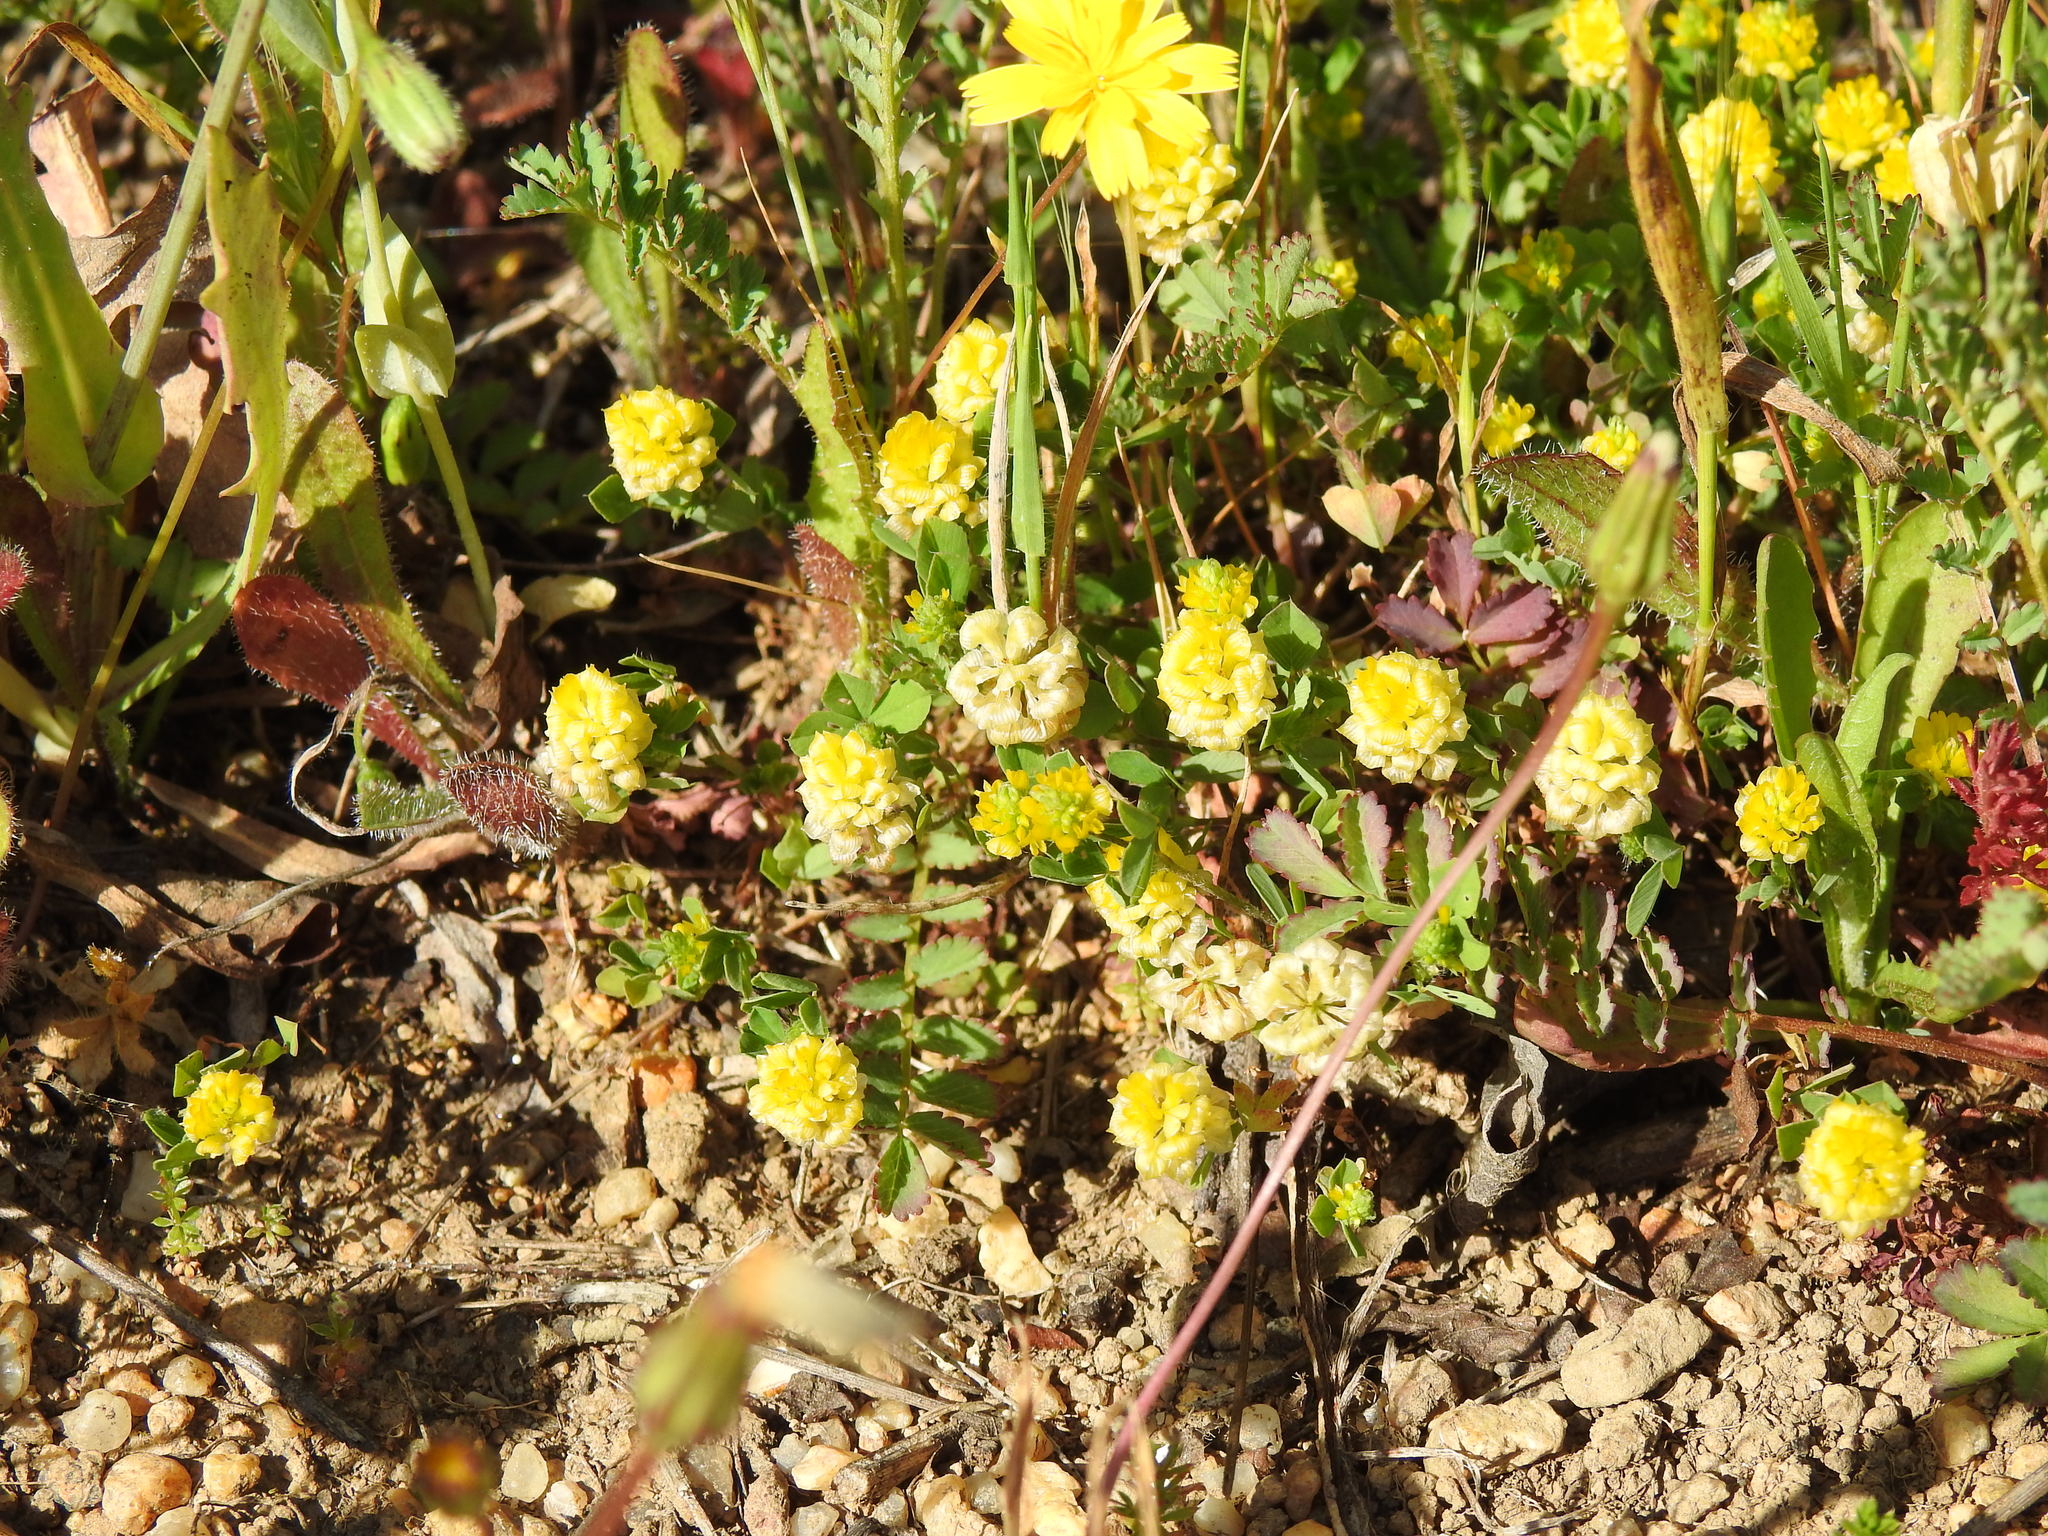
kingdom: Plantae
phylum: Tracheophyta
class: Magnoliopsida
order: Fabales
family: Fabaceae
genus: Trifolium
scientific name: Trifolium campestre
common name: Field clover
